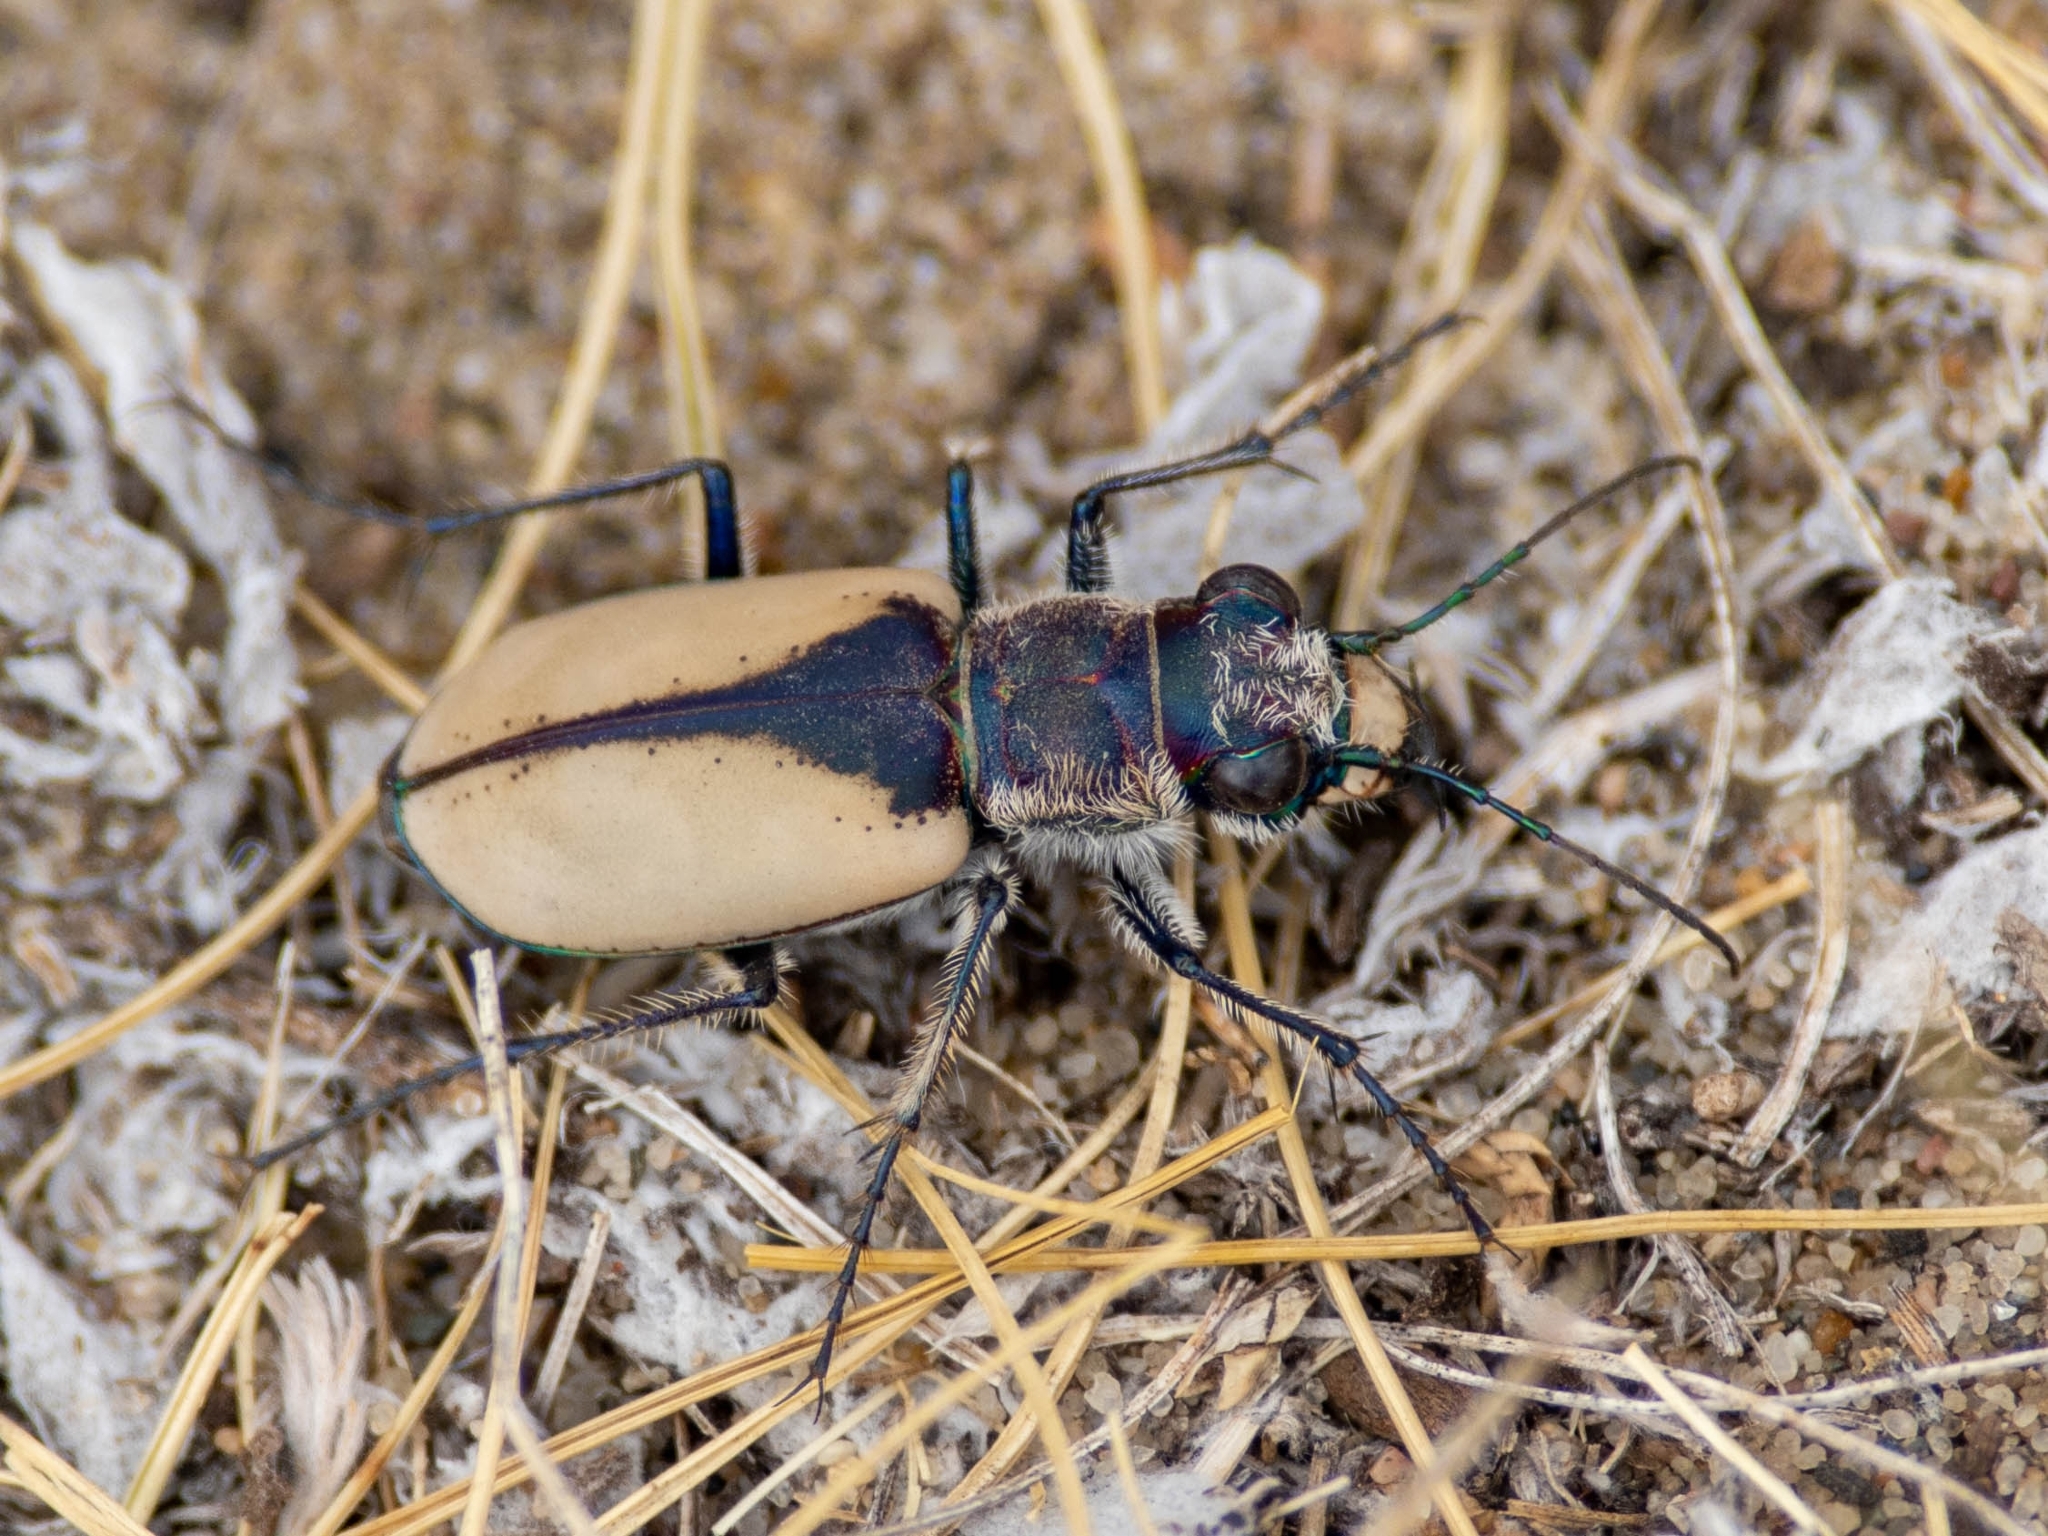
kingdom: Animalia
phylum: Arthropoda
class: Insecta
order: Coleoptera
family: Carabidae
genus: Cicindela
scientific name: Cicindela formosa
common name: Big sand tiger beetle
